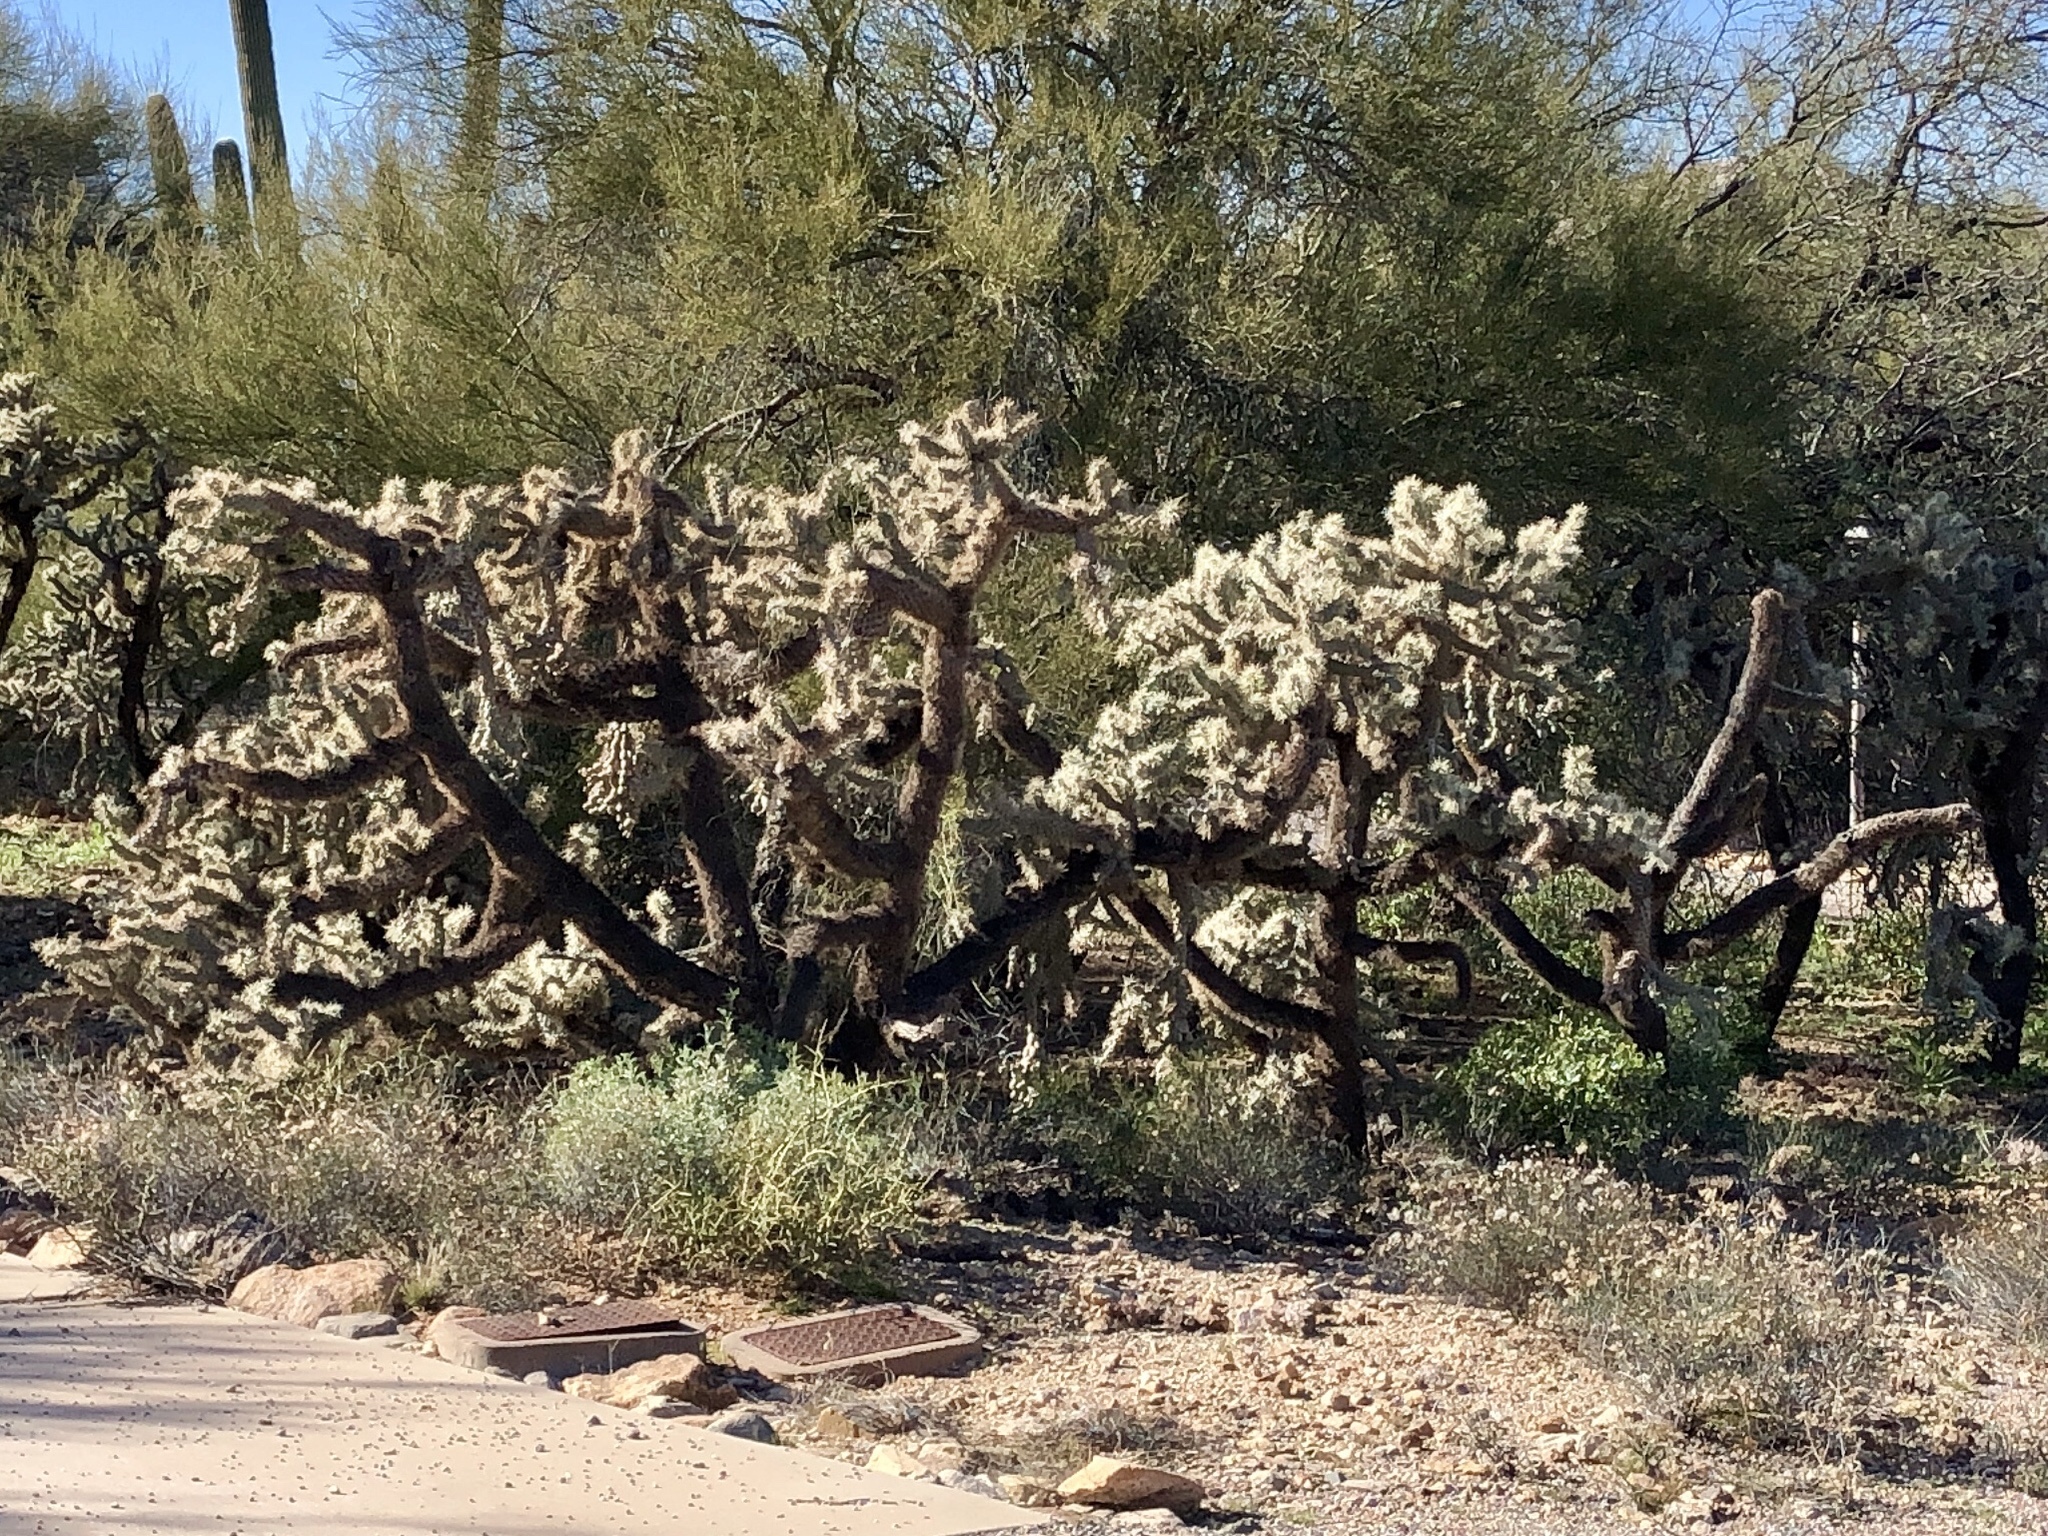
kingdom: Plantae
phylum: Tracheophyta
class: Magnoliopsida
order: Caryophyllales
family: Cactaceae
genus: Cylindropuntia
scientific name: Cylindropuntia fulgida
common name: Jumping cholla
